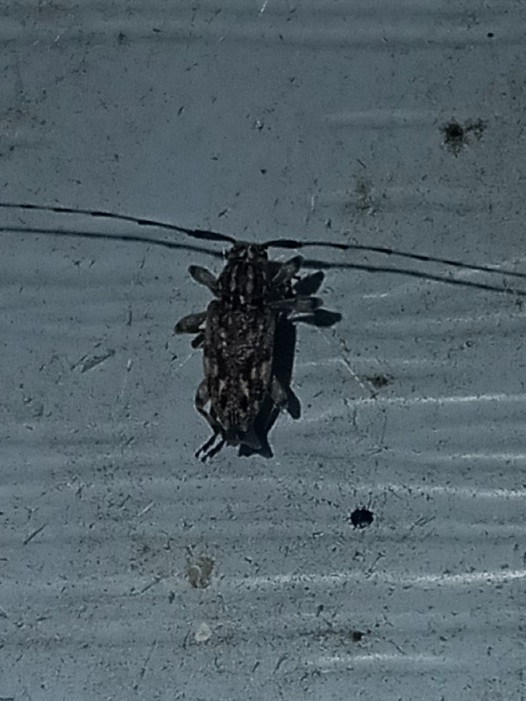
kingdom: Animalia
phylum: Arthropoda
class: Insecta
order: Coleoptera
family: Cerambycidae
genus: Atrypanius
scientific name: Atrypanius haldemani
